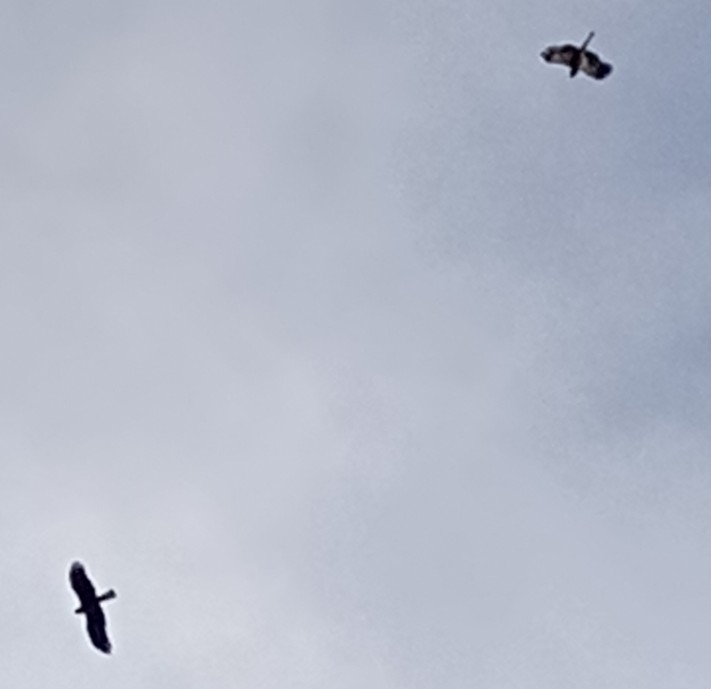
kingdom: Animalia
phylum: Chordata
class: Aves
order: Accipitriformes
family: Accipitridae
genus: Hieraaetus
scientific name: Hieraaetus pennatus
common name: Booted eagle
